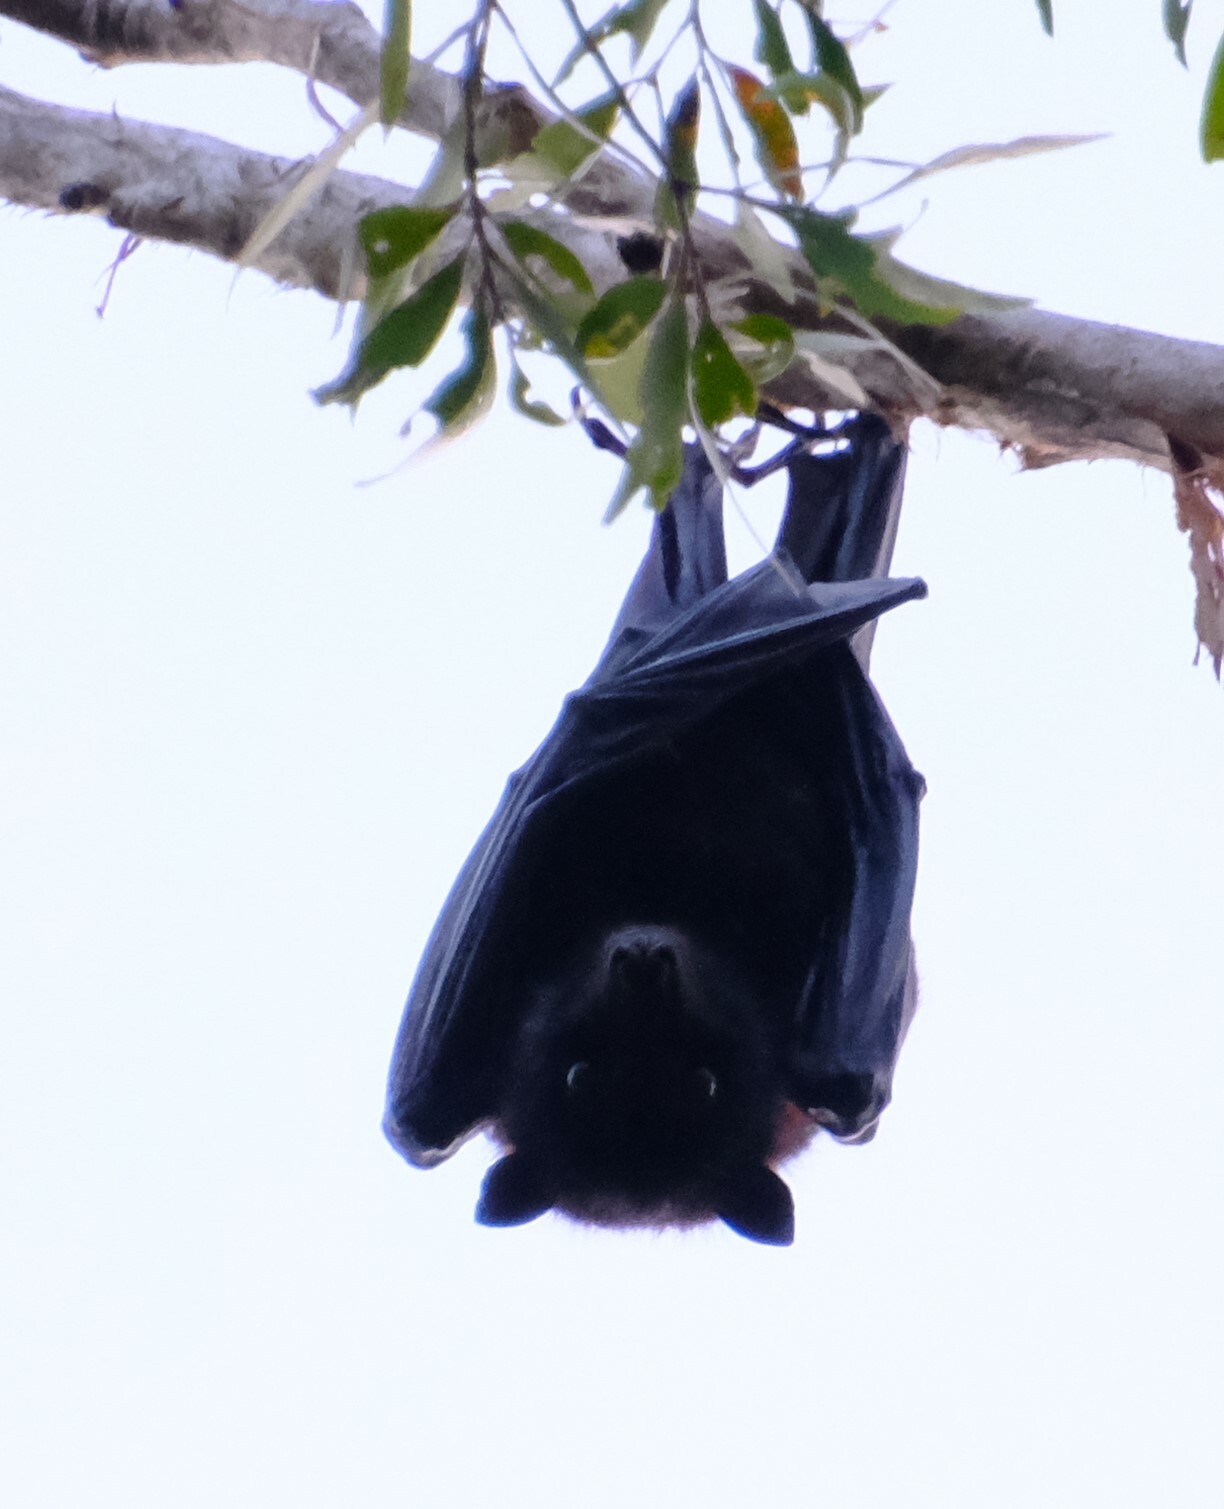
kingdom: Animalia
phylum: Chordata
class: Mammalia
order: Chiroptera
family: Pteropodidae
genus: Pteropus
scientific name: Pteropus alecto
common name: Black flying fox
